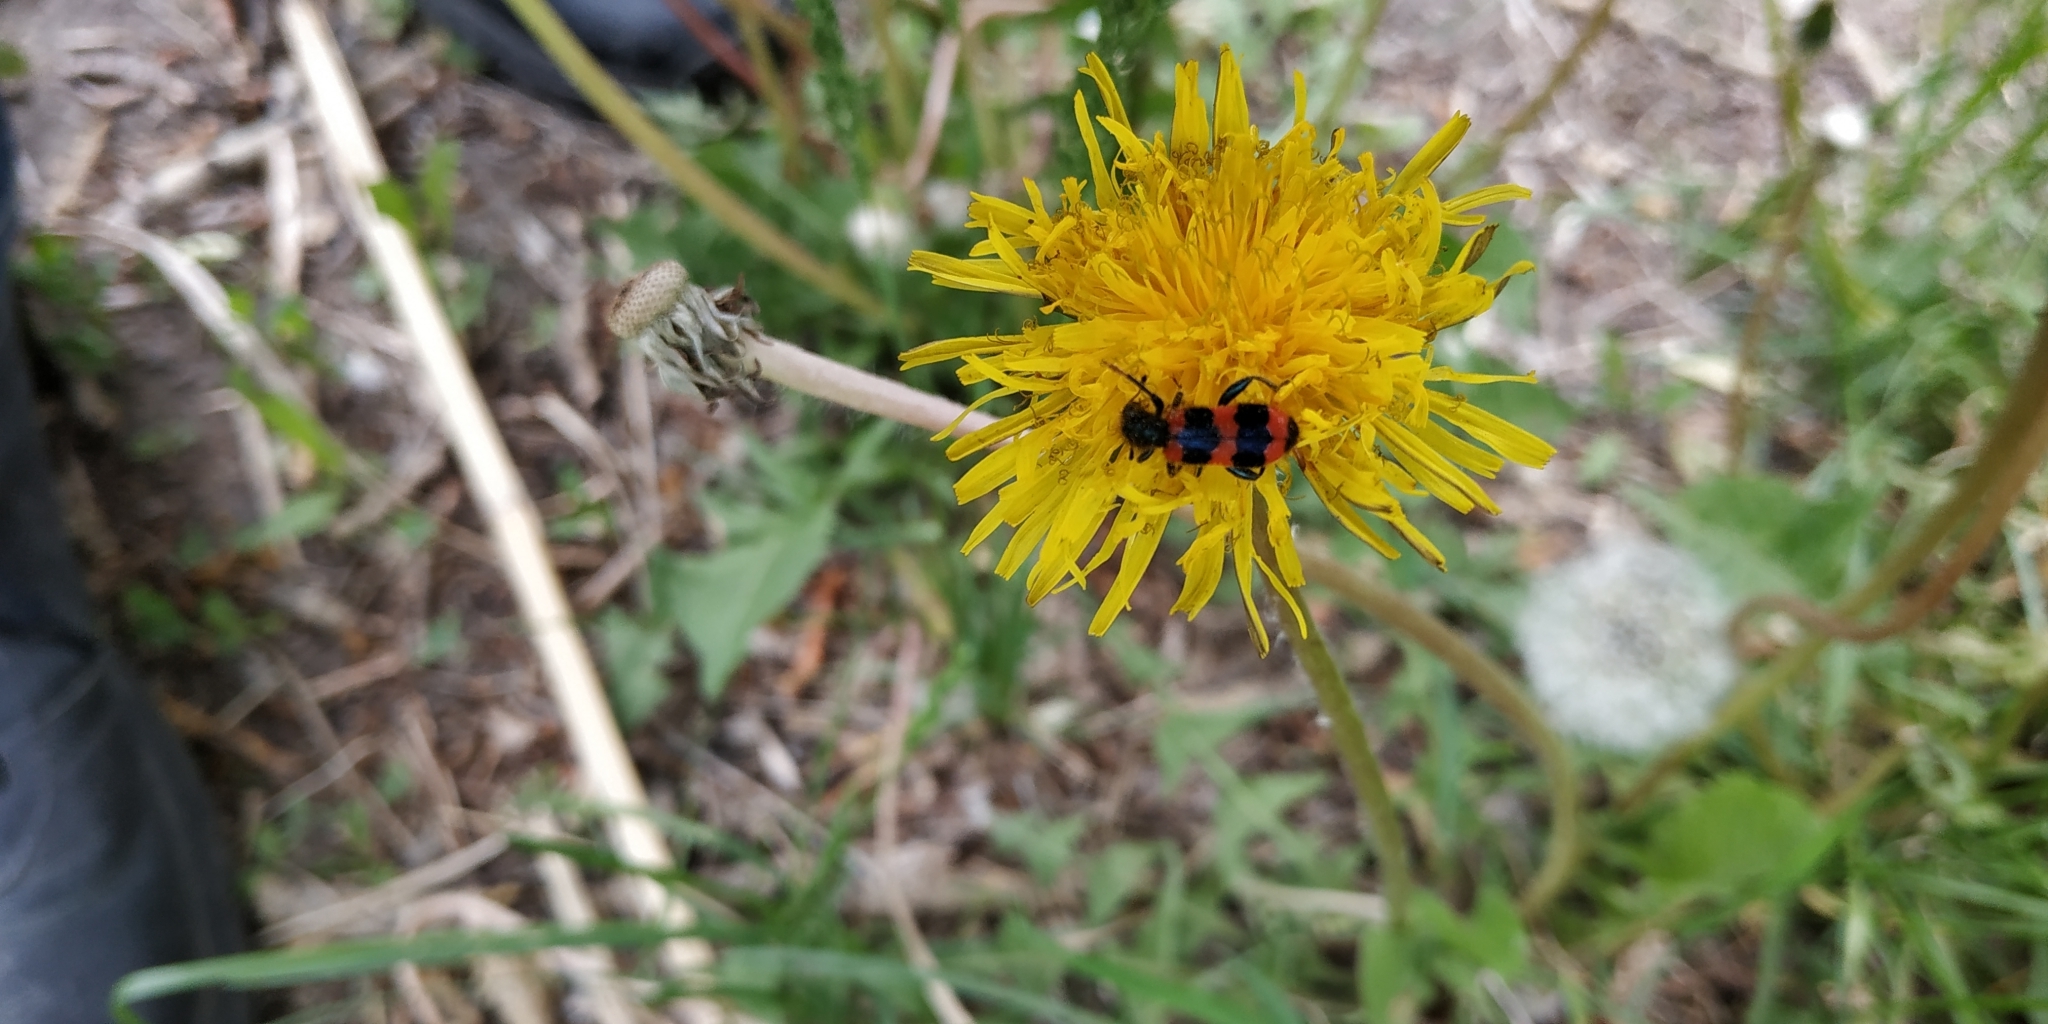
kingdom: Animalia
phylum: Arthropoda
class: Insecta
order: Coleoptera
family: Cleridae
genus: Trichodes
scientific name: Trichodes apiarius
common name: Bee-eating beetle
